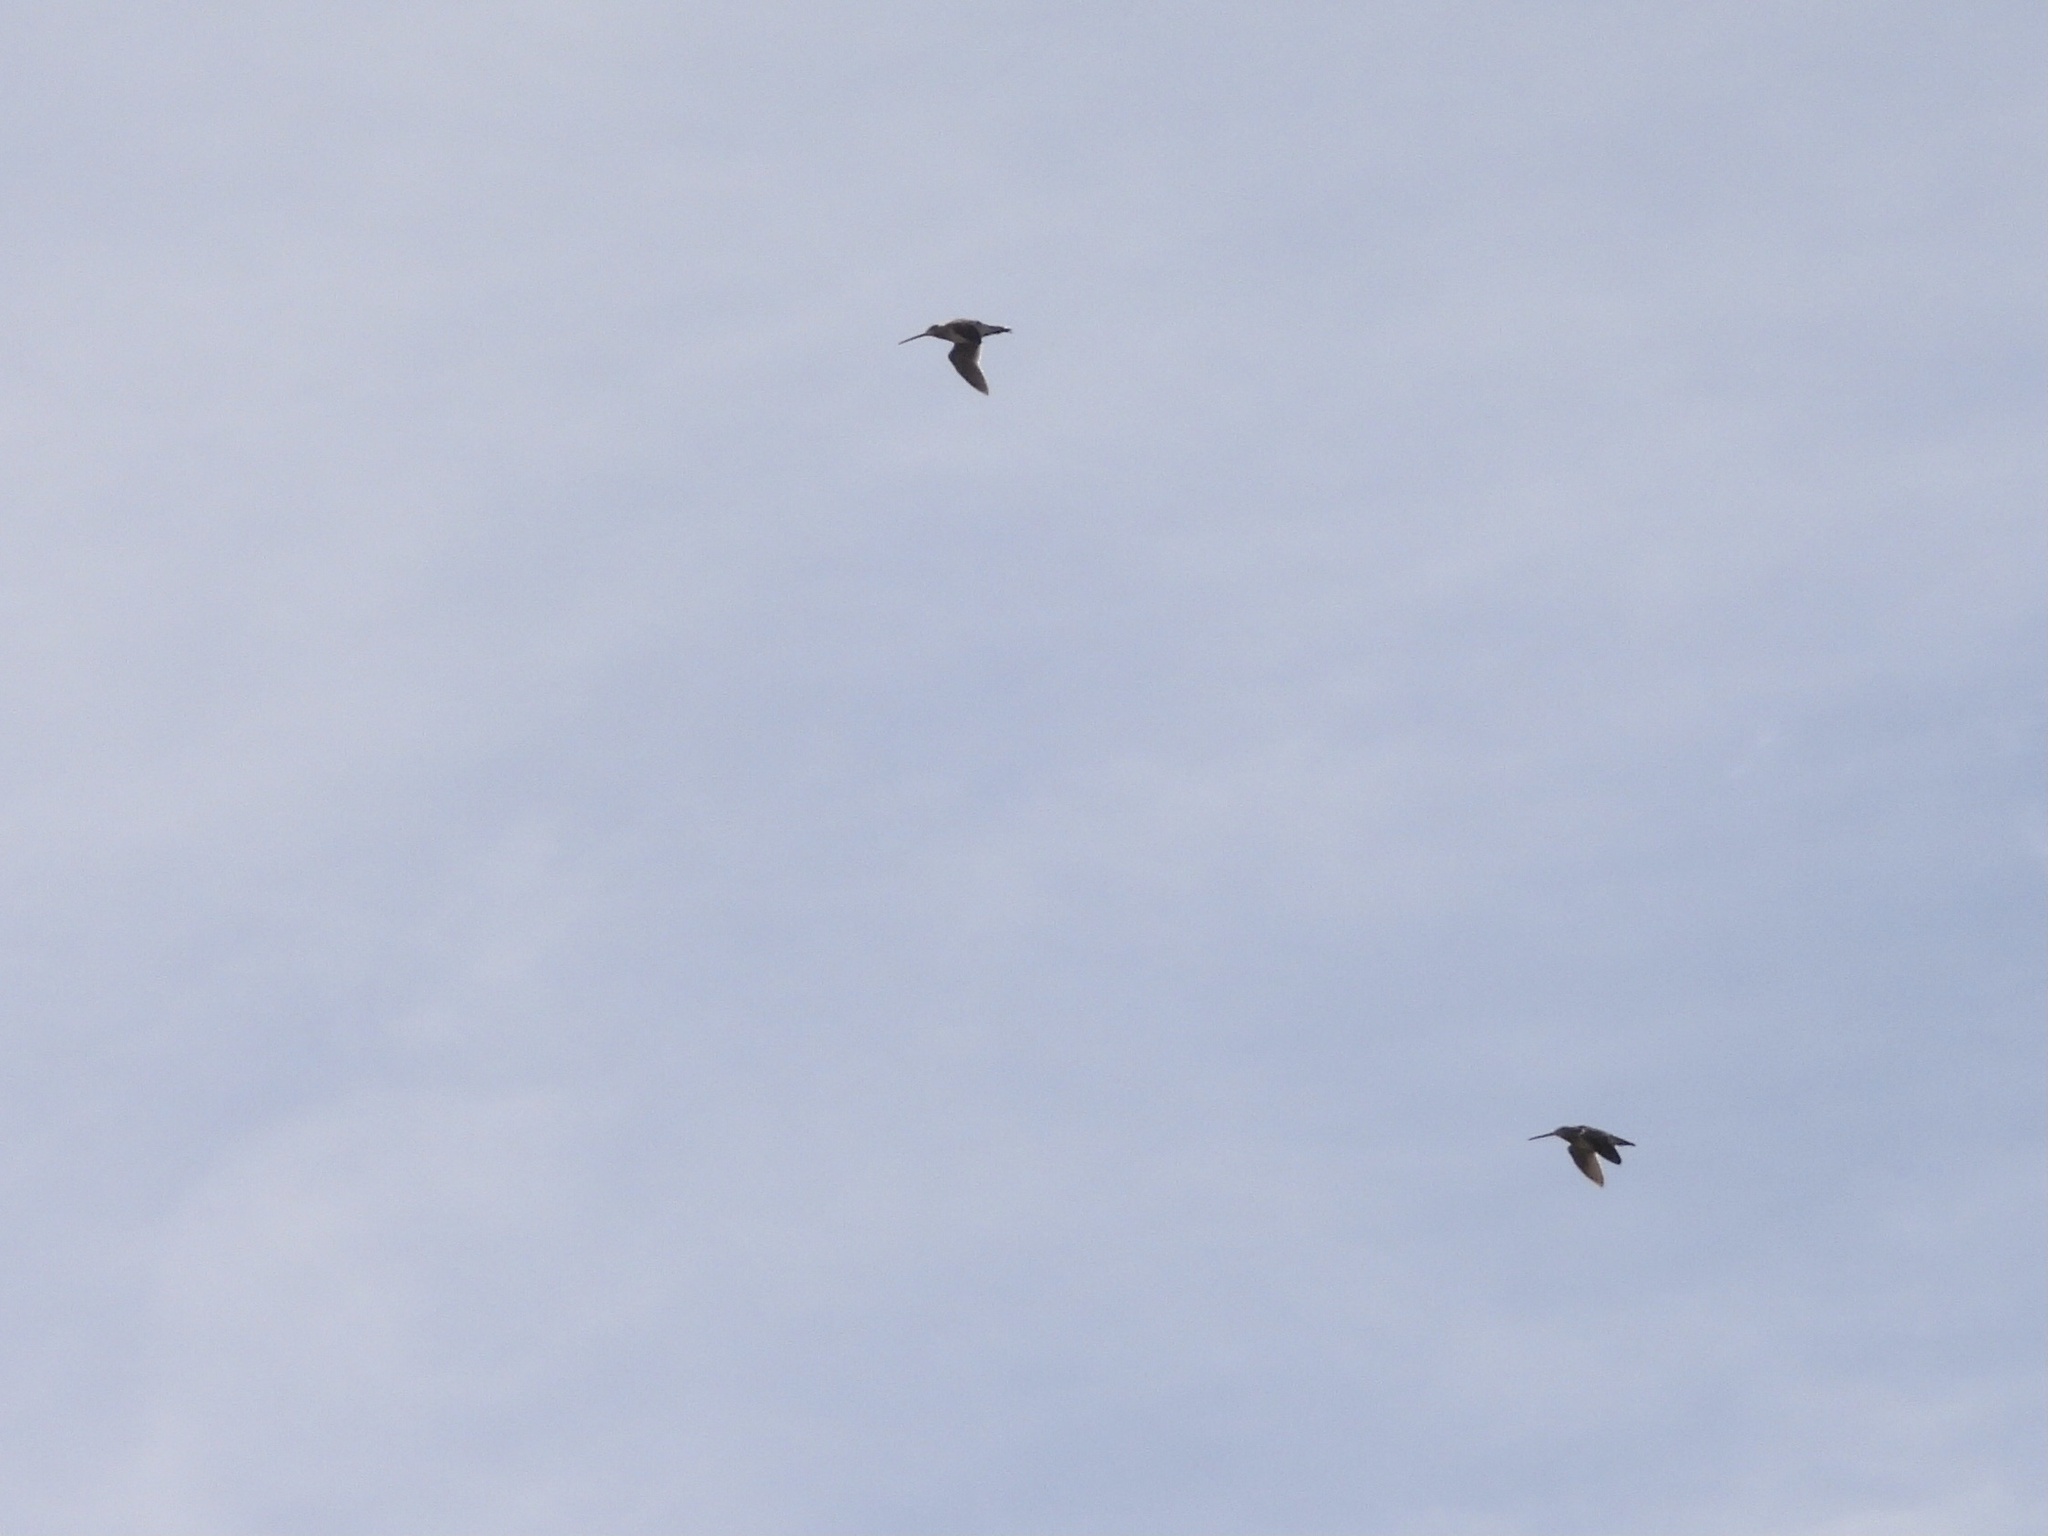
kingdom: Animalia
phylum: Chordata
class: Aves
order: Charadriiformes
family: Scolopacidae
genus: Gallinago
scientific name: Gallinago magellanica
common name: Magellanic snipe
